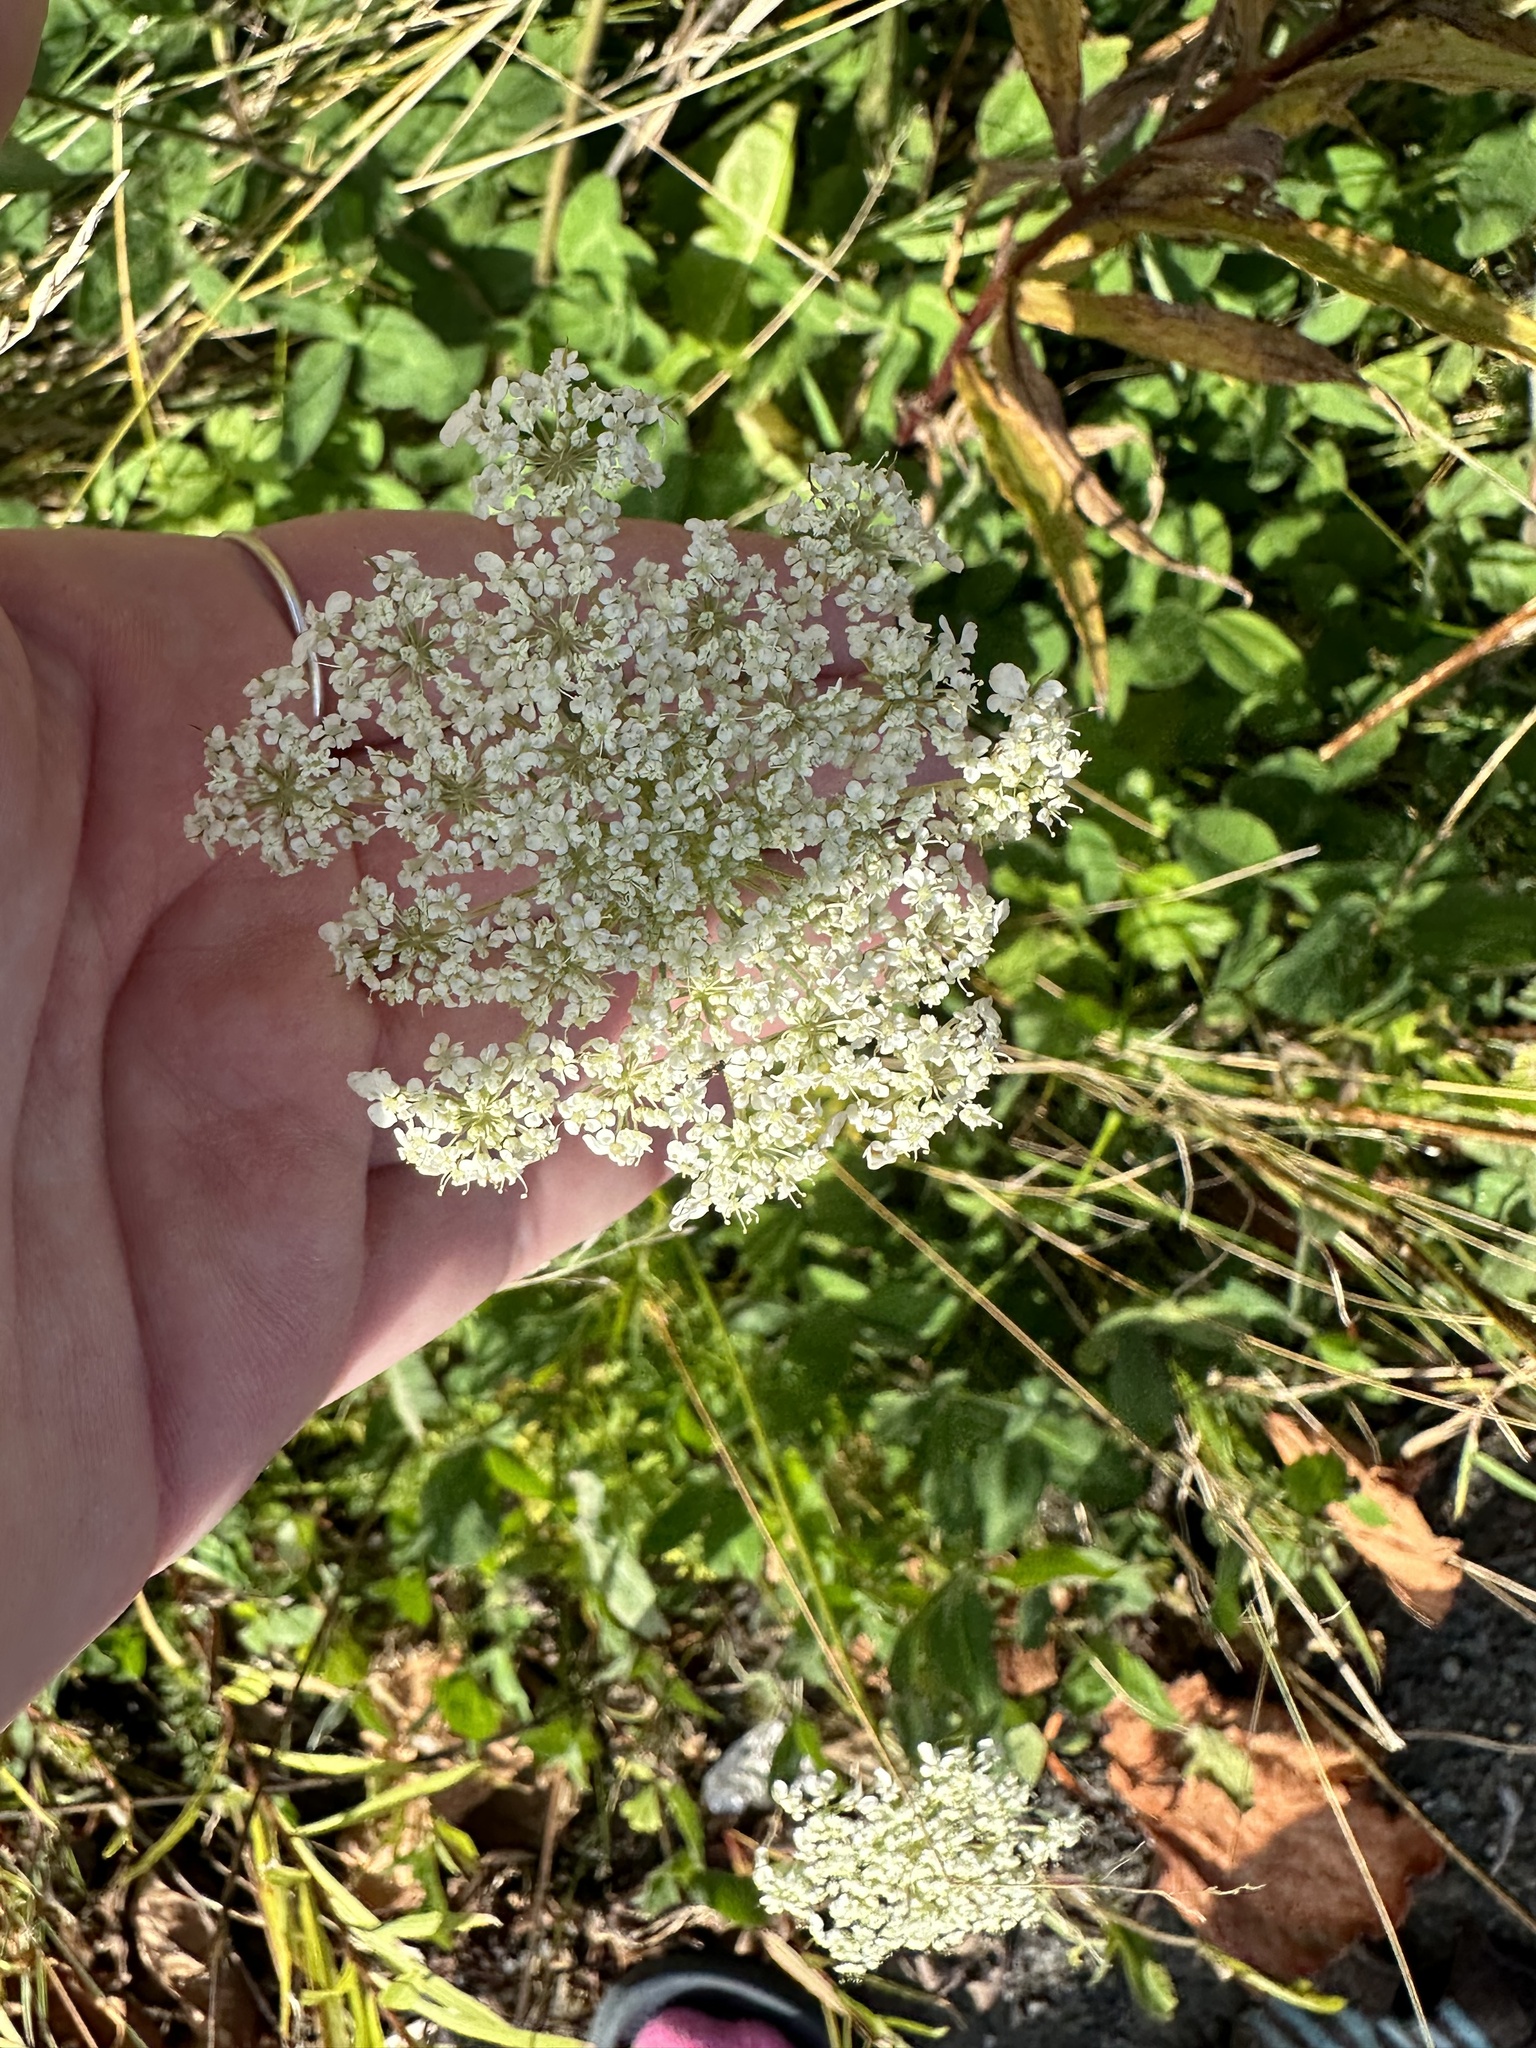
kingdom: Plantae
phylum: Tracheophyta
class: Magnoliopsida
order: Apiales
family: Apiaceae
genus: Daucus
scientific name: Daucus carota
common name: Wild carrot
